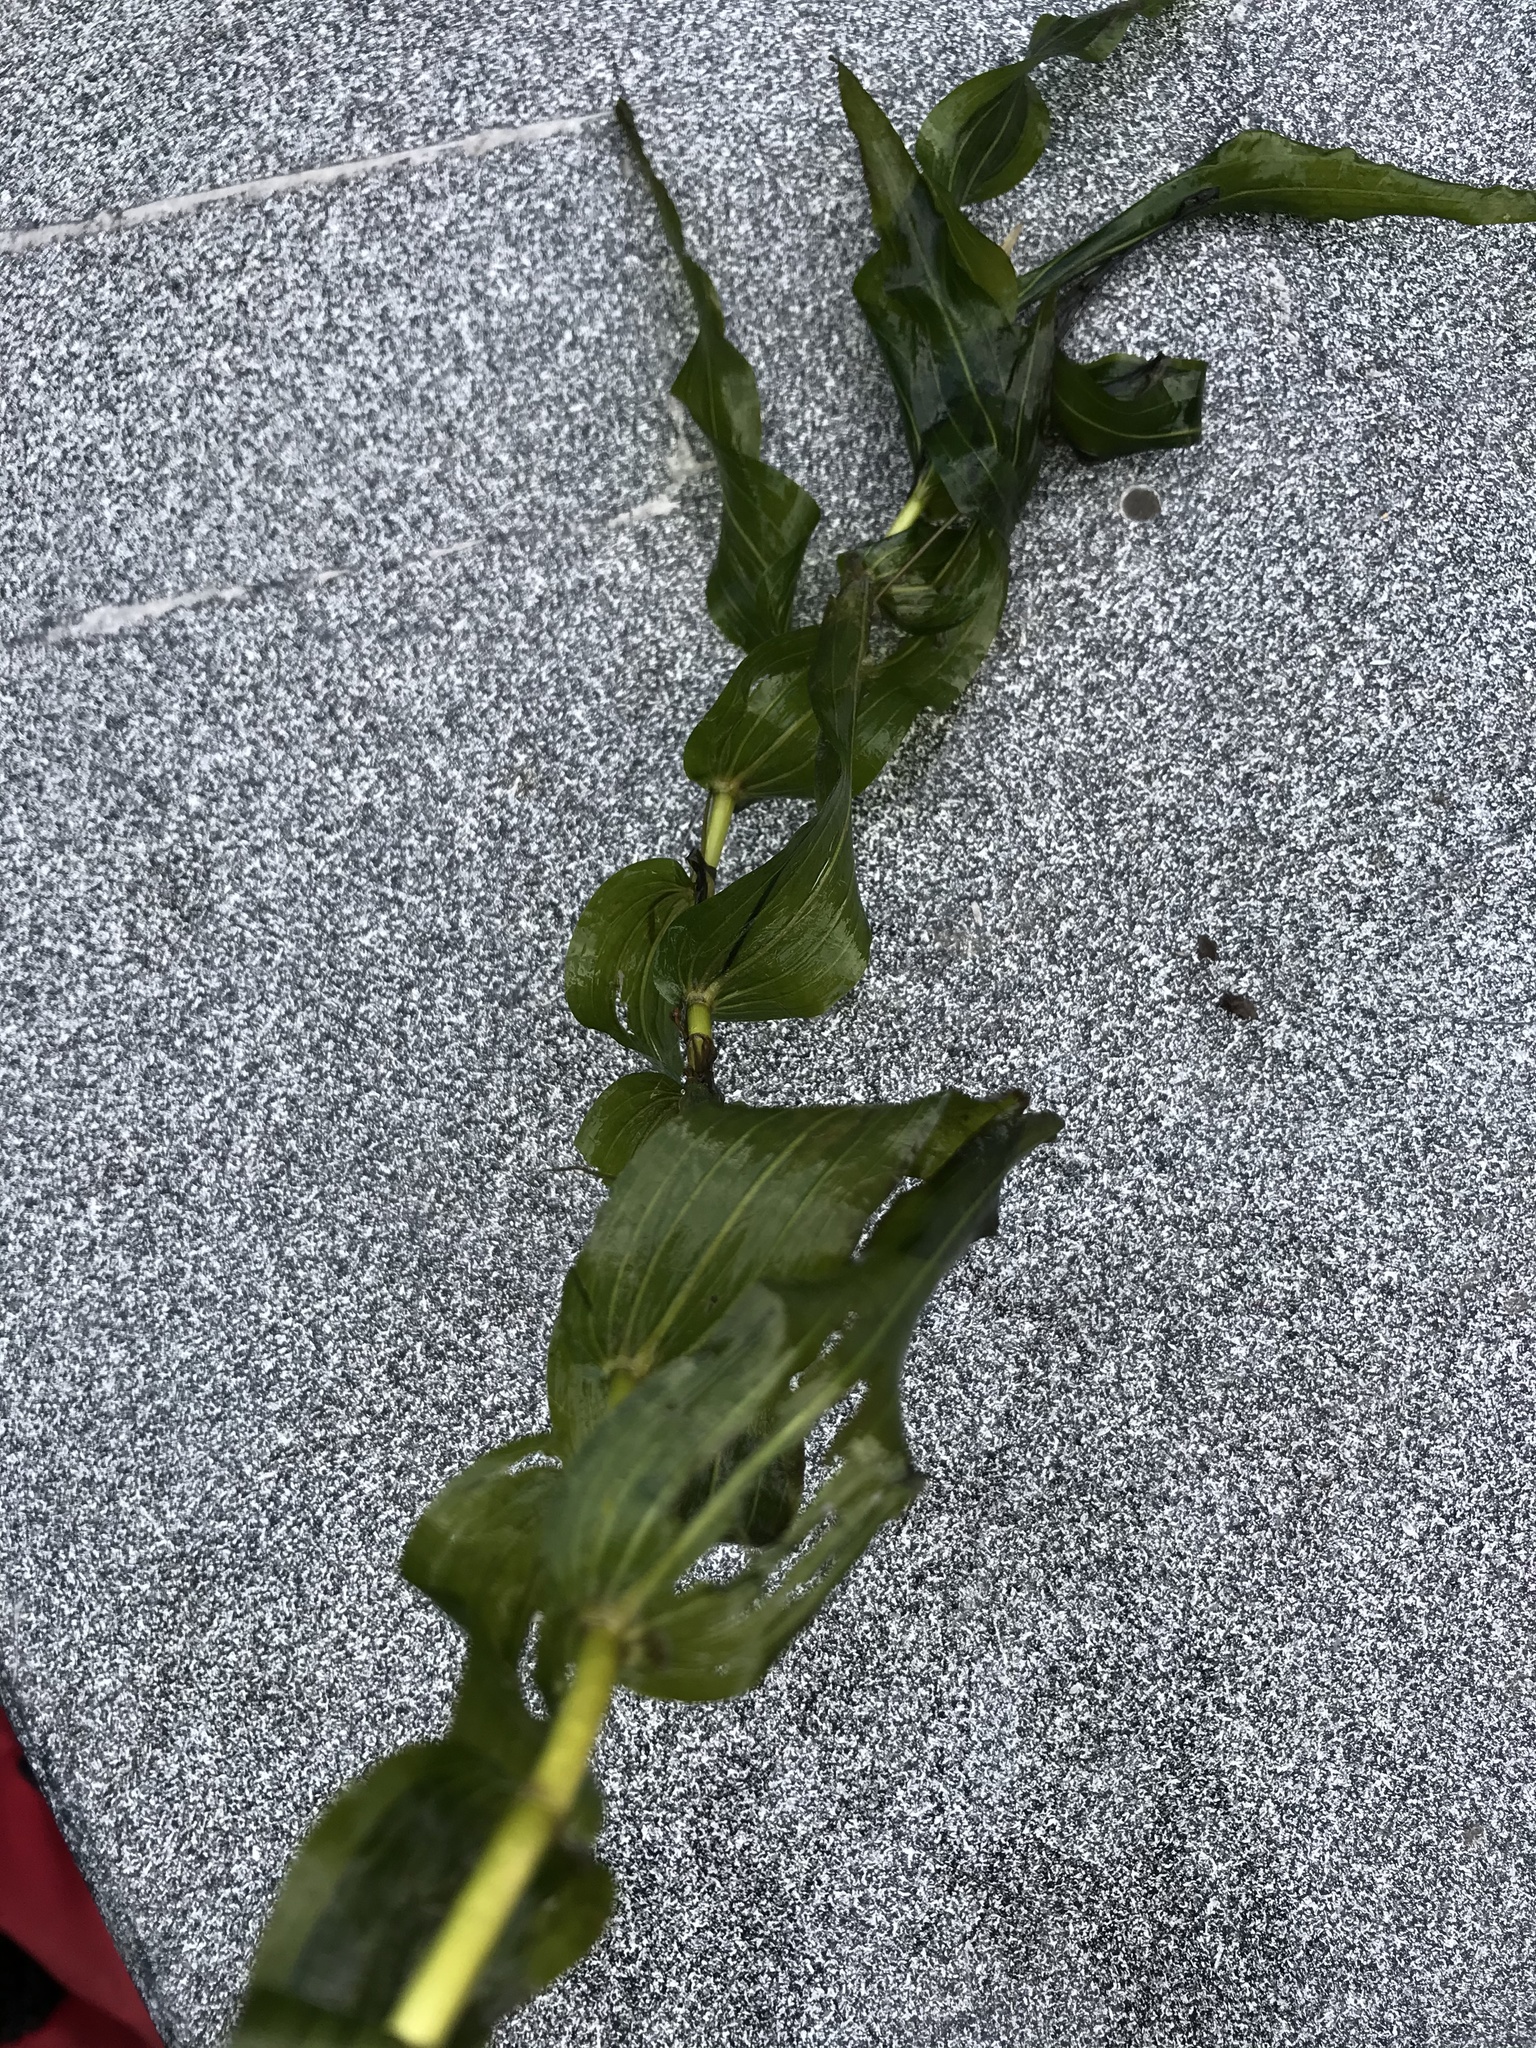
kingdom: Plantae
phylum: Tracheophyta
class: Liliopsida
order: Alismatales
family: Potamogetonaceae
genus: Potamogeton
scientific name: Potamogeton crispus
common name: Curled pondweed
